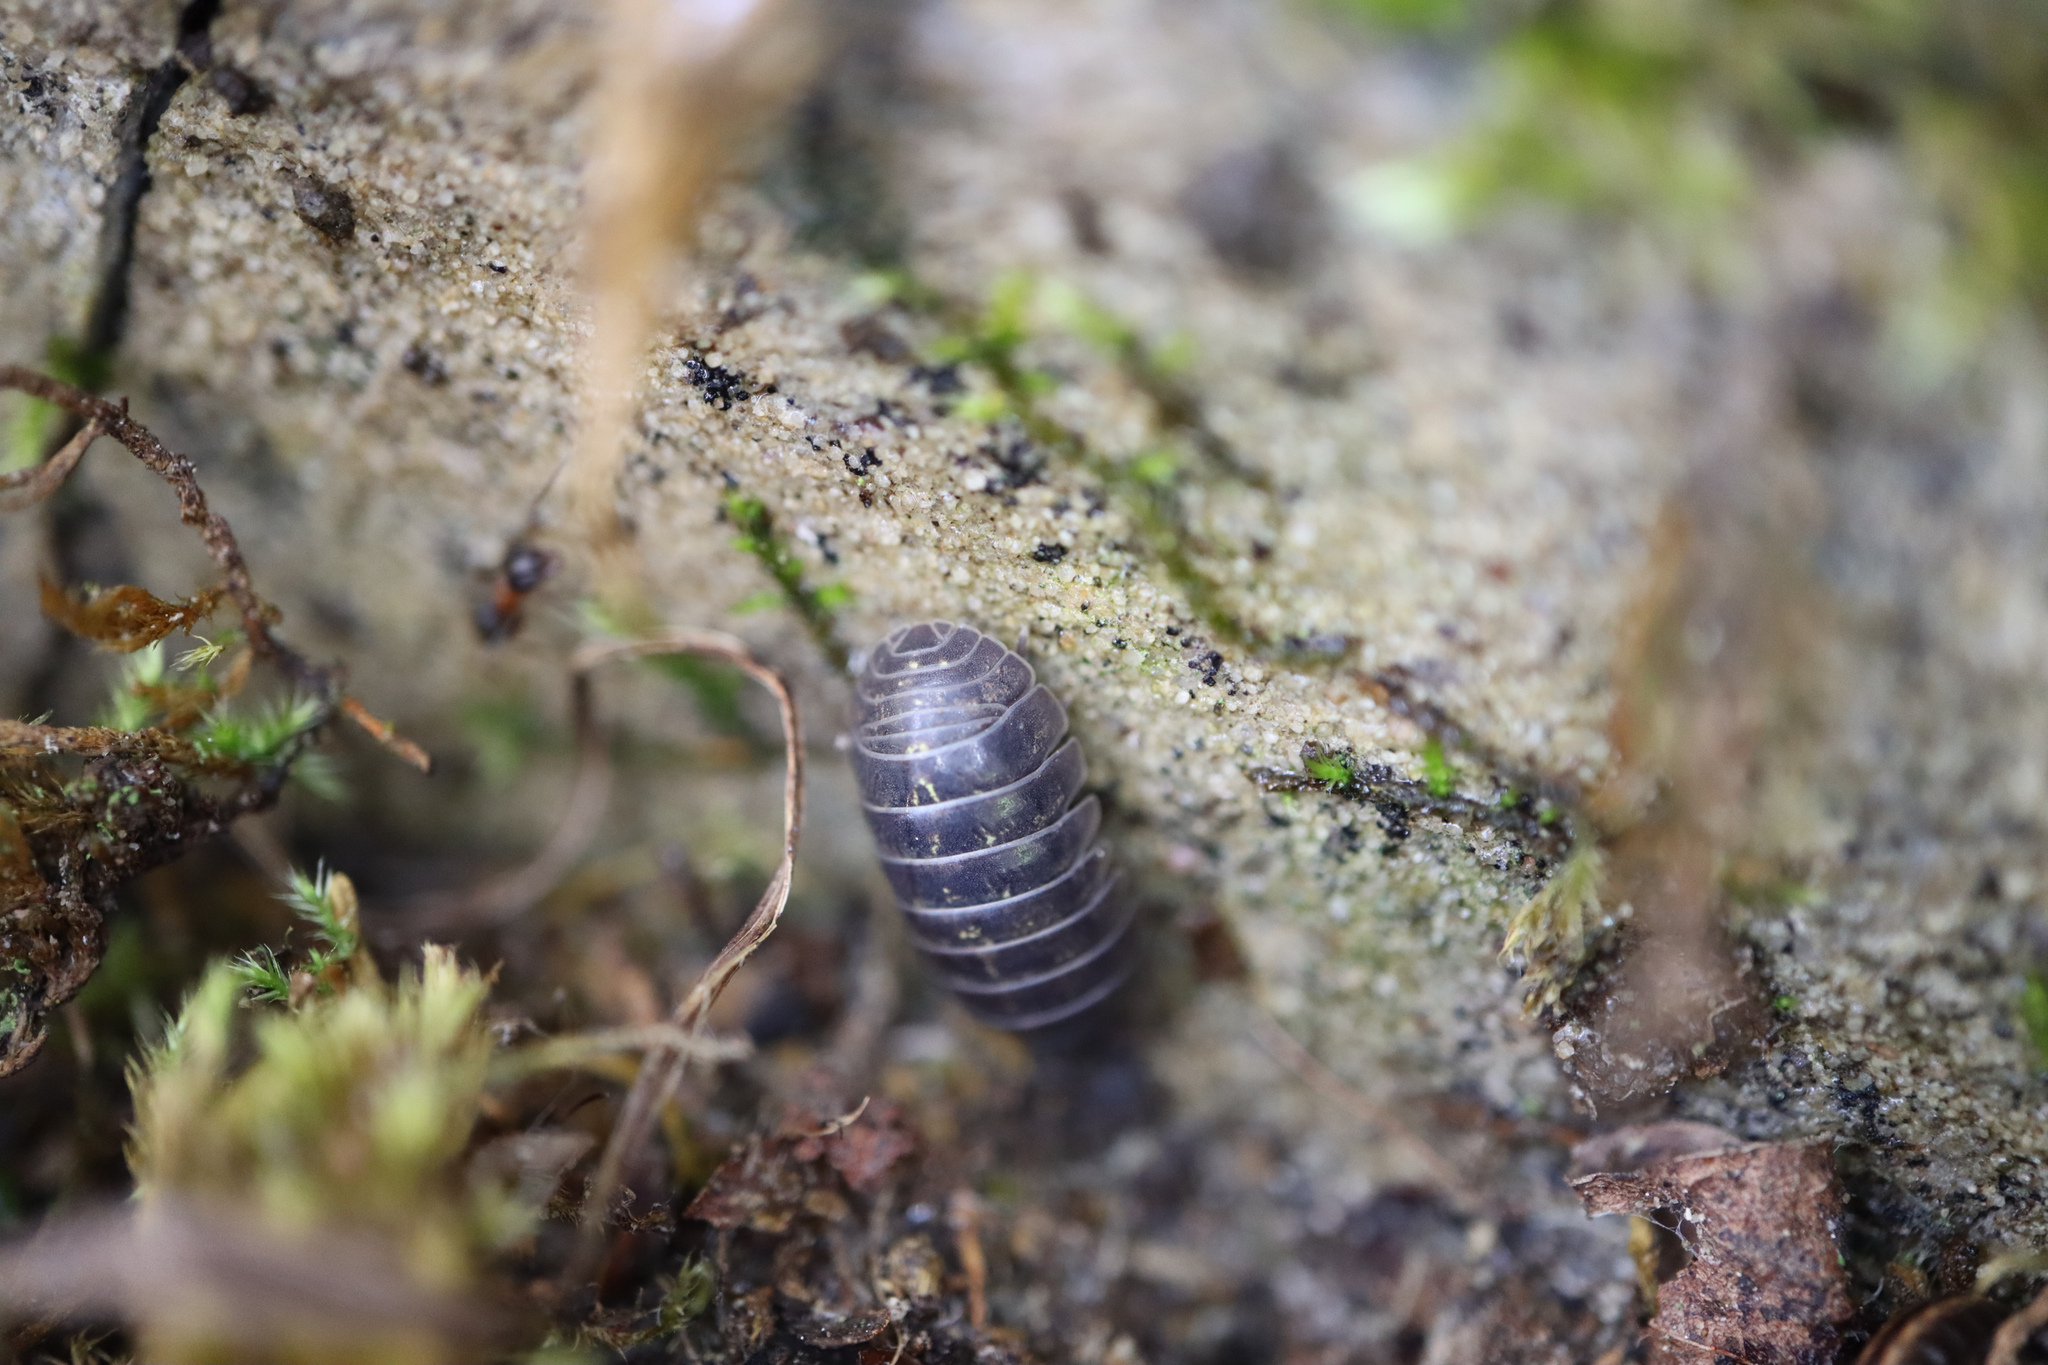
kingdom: Animalia
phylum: Arthropoda
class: Malacostraca
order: Isopoda
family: Armadillidiidae
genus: Armadillidium
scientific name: Armadillidium vulgare
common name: Common pill woodlouse
